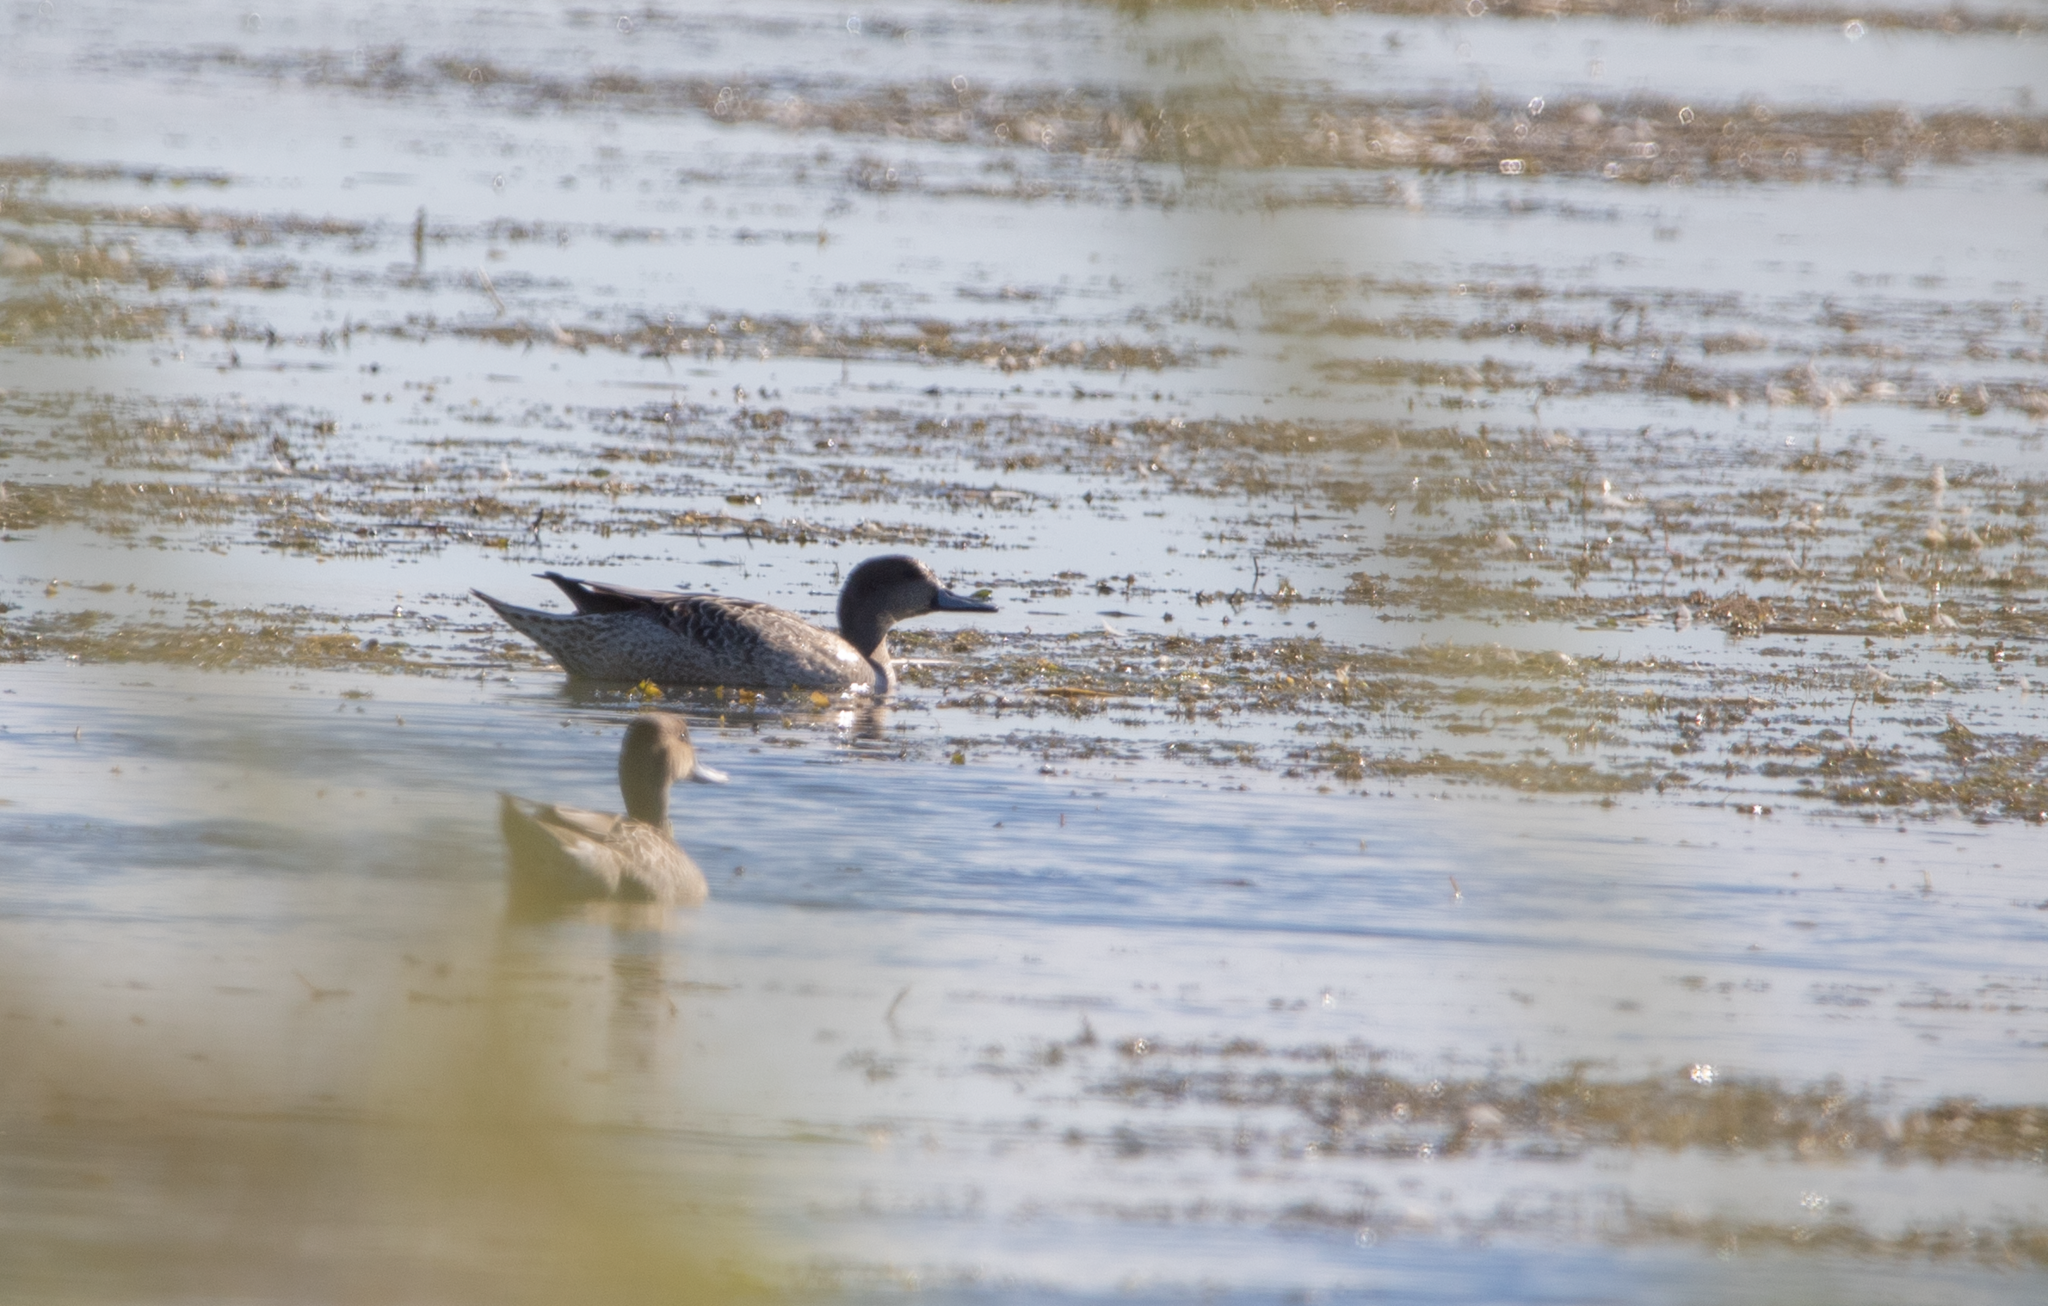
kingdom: Animalia
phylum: Chordata
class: Aves
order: Anseriformes
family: Anatidae
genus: Anas
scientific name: Anas acuta
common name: Northern pintail
